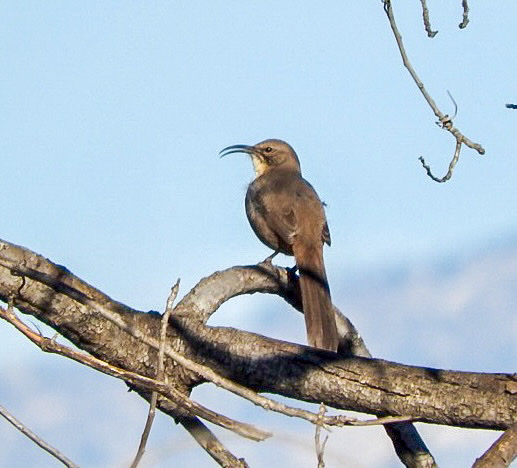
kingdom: Animalia
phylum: Chordata
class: Aves
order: Passeriformes
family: Mimidae
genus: Toxostoma
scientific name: Toxostoma redivivum
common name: California thrasher
